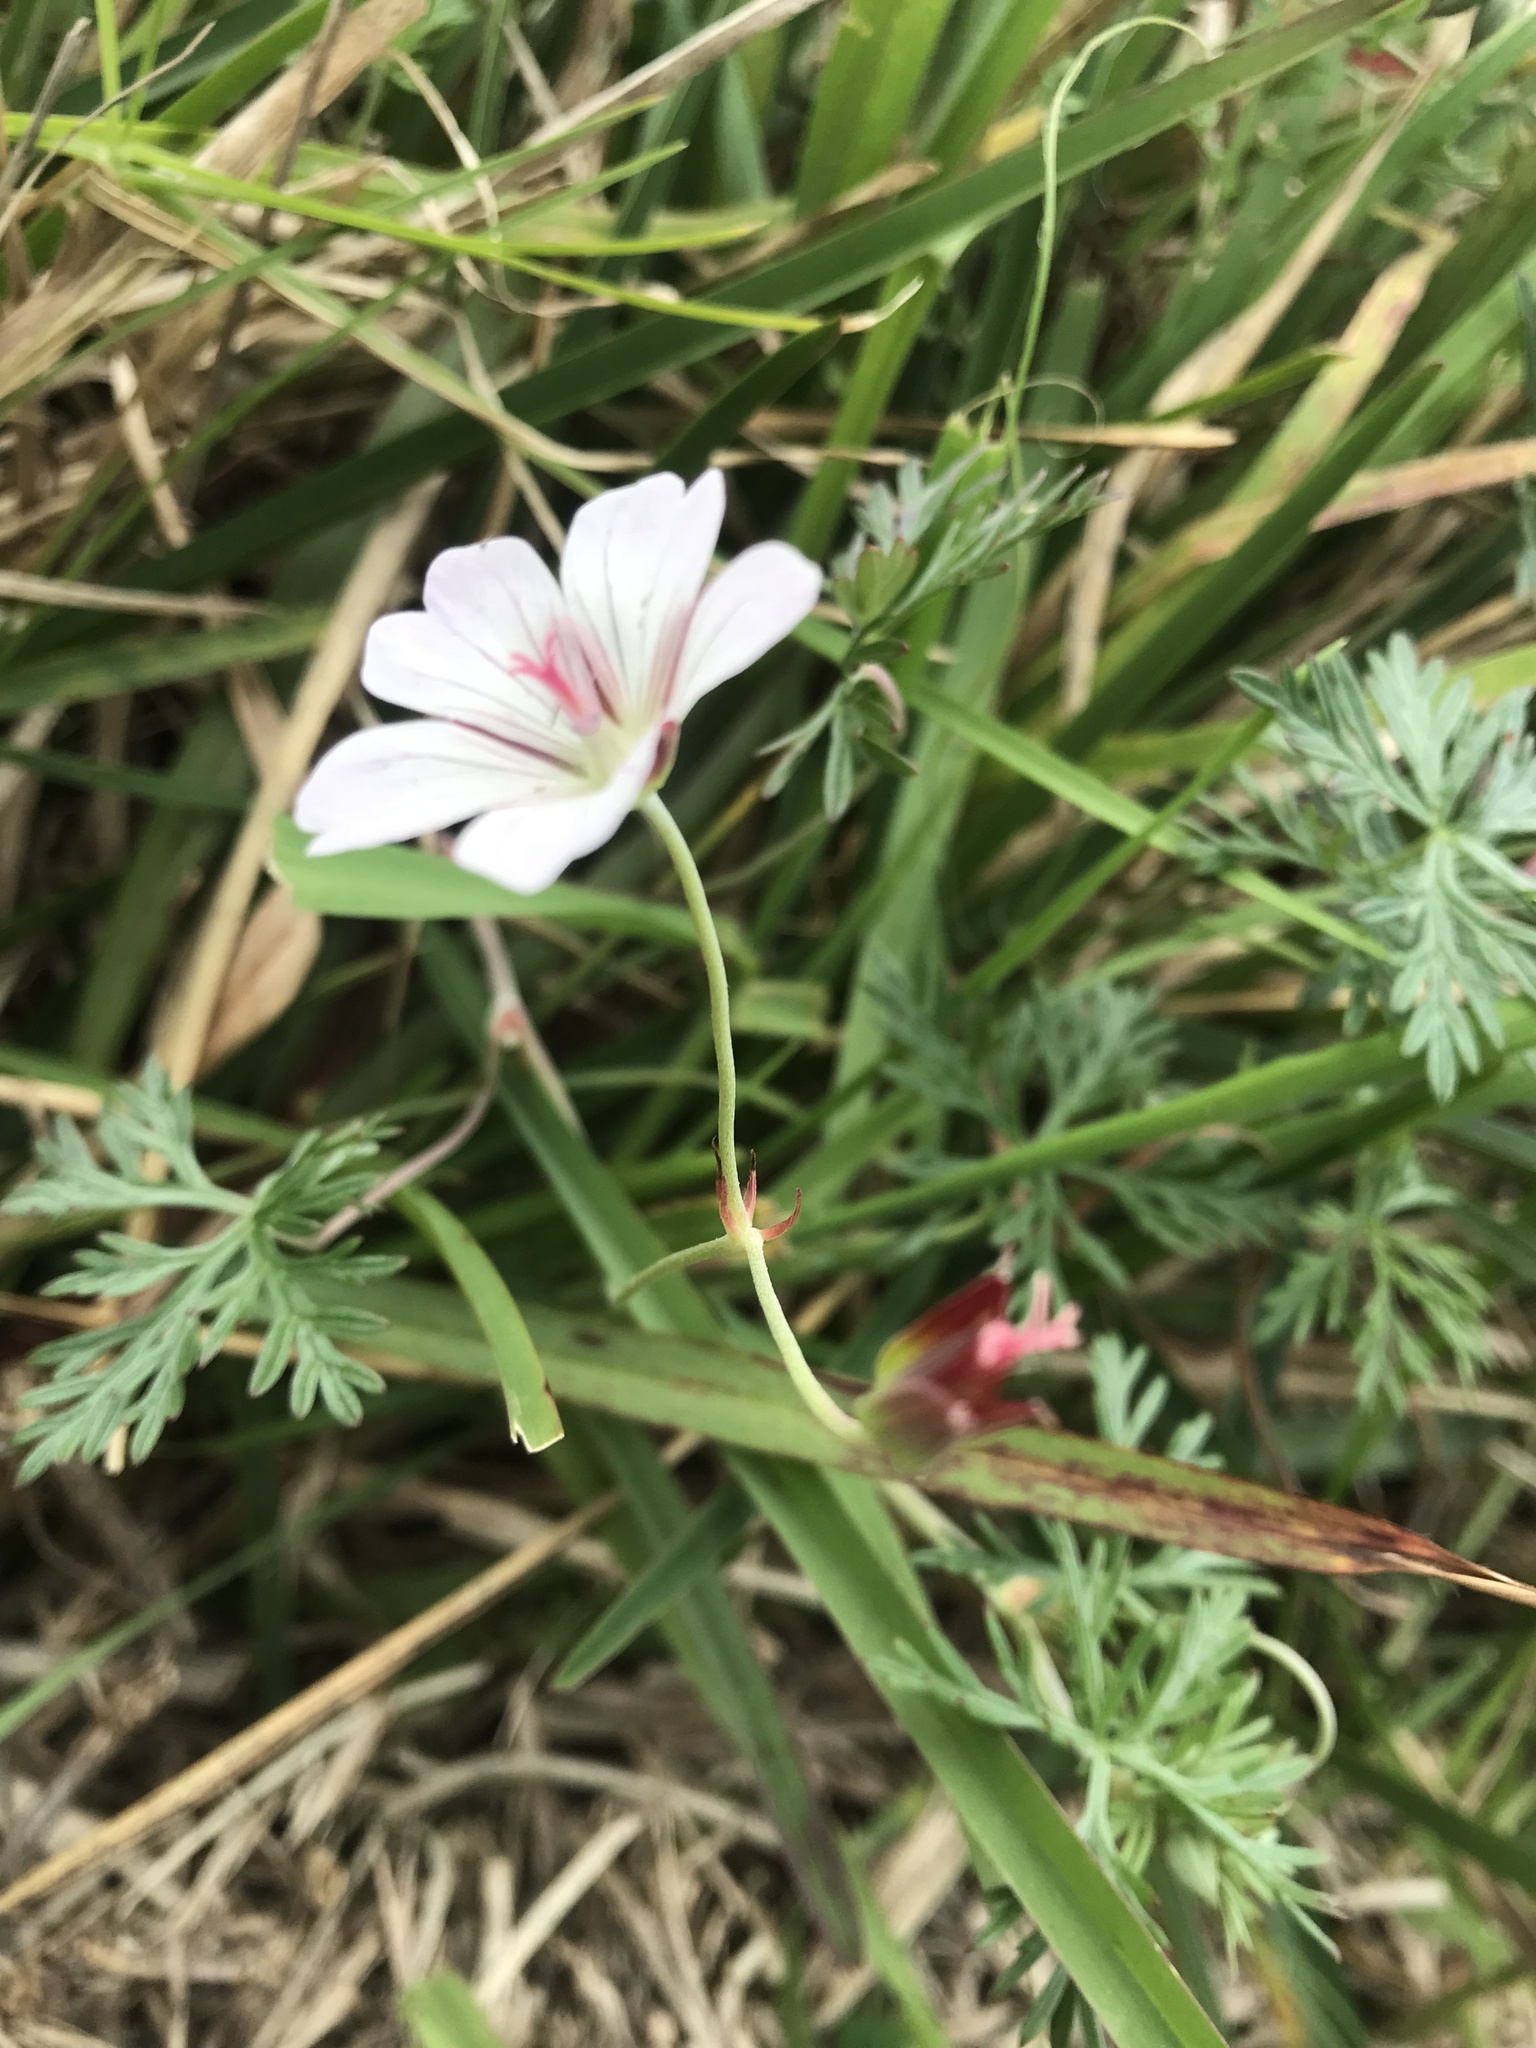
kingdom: Plantae
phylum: Tracheophyta
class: Magnoliopsida
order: Geraniales
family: Geraniaceae
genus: Geranium
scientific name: Geranium incanum
